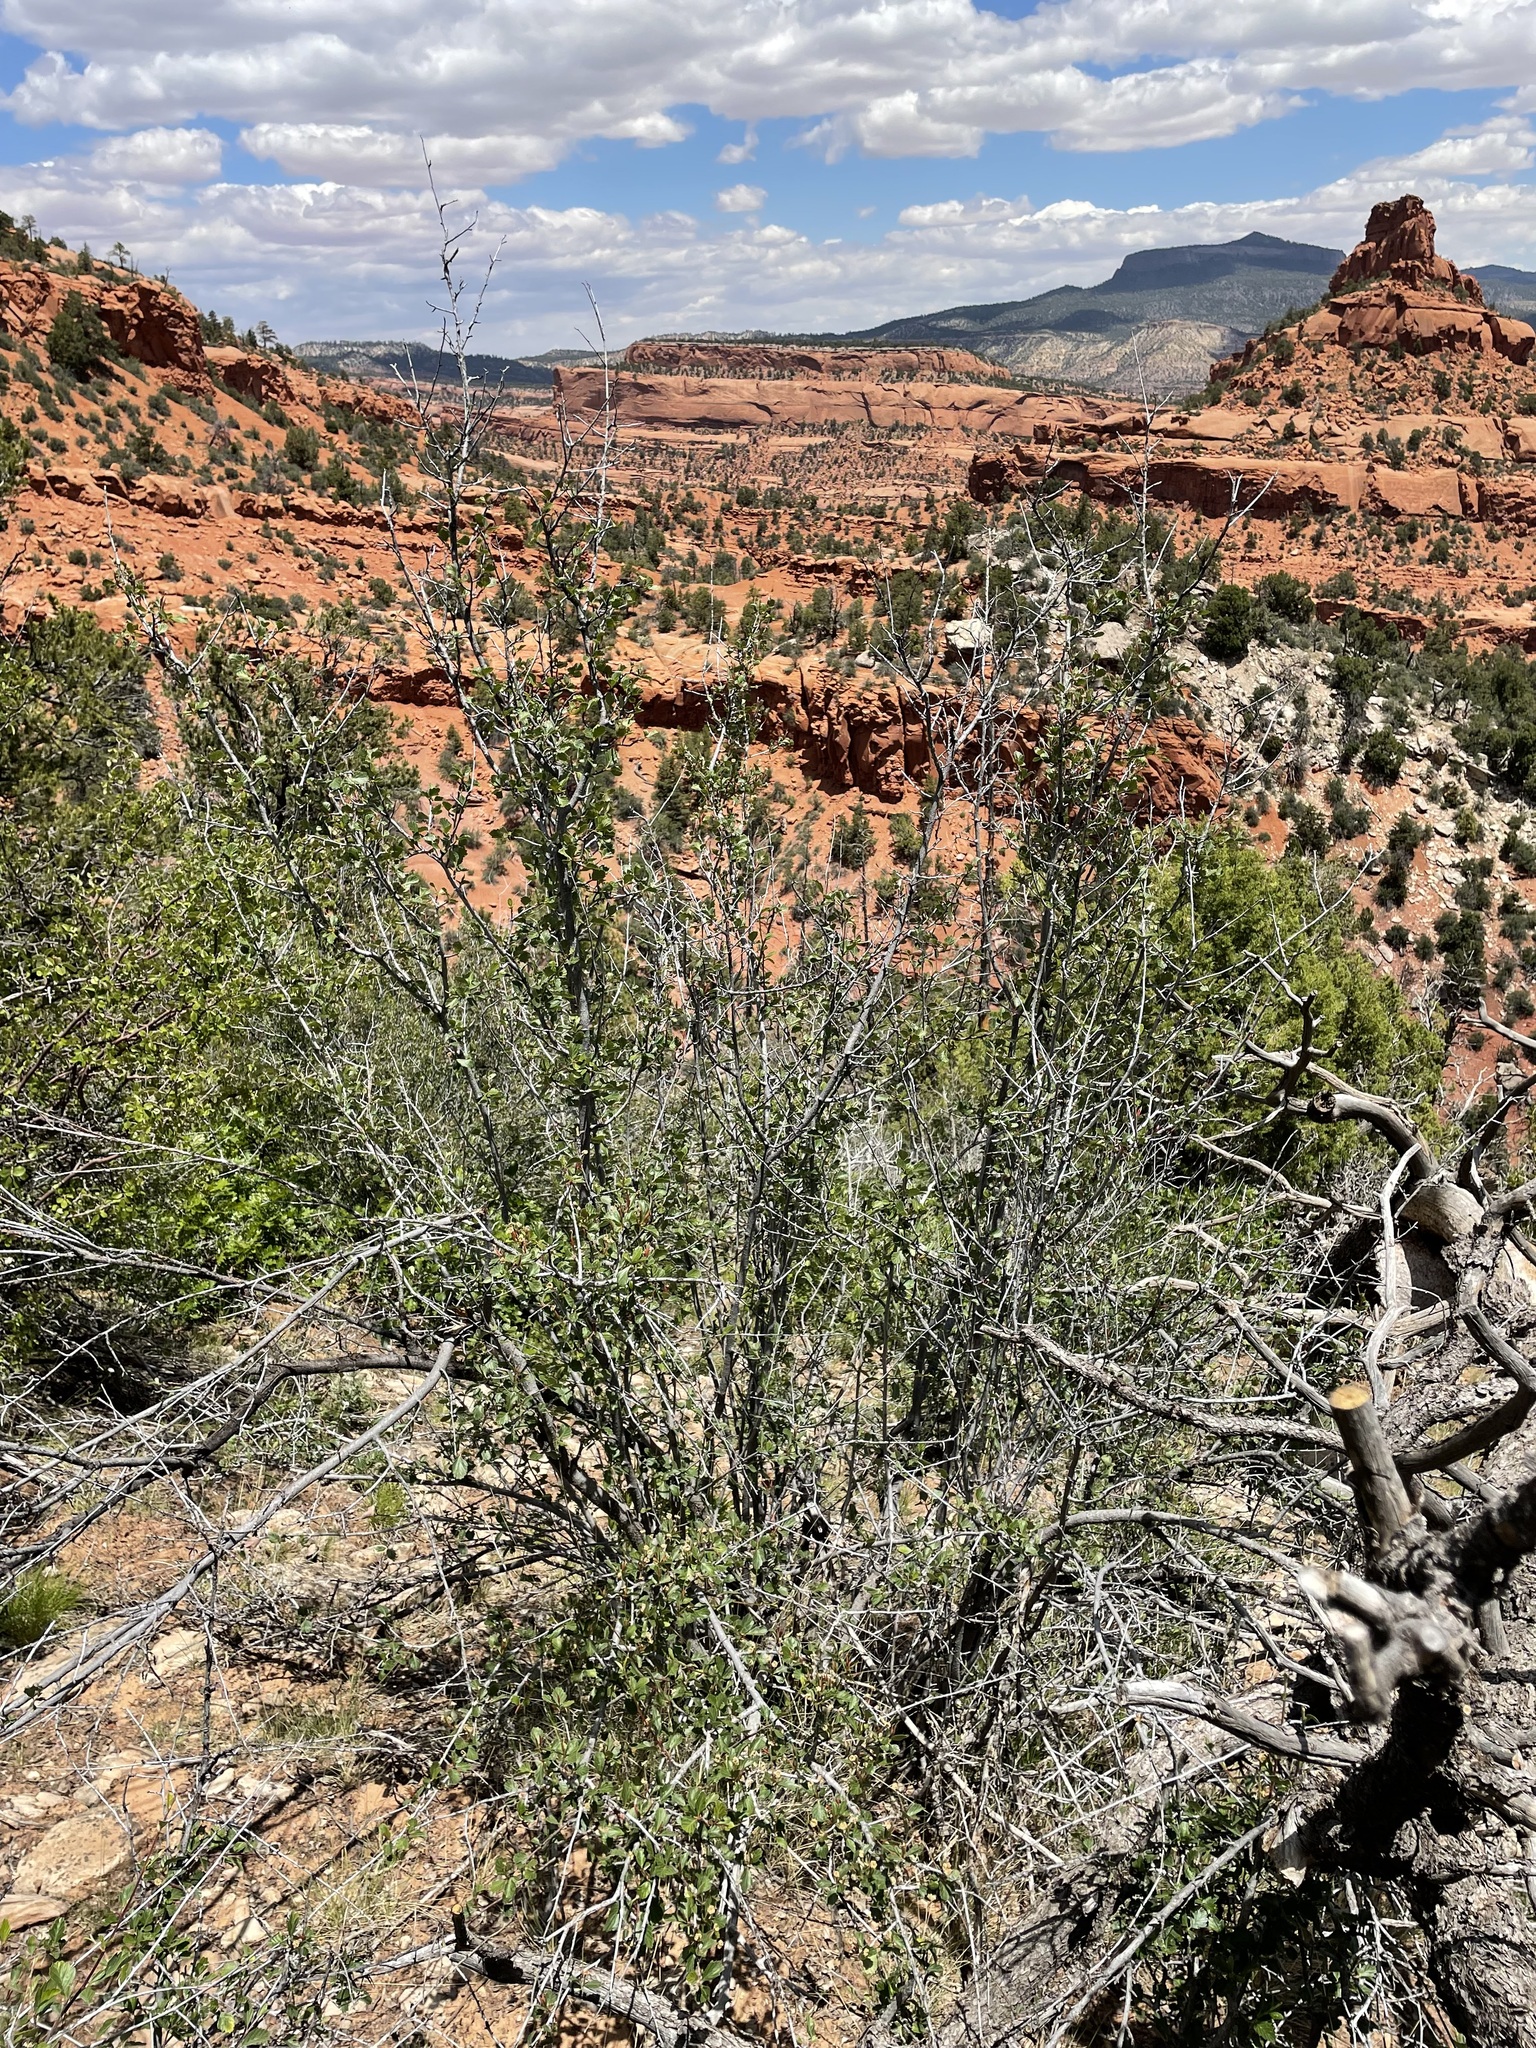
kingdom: Plantae
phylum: Tracheophyta
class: Magnoliopsida
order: Rosales
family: Rosaceae
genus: Amelanchier
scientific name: Amelanchier utahensis
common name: Utah serviceberry
